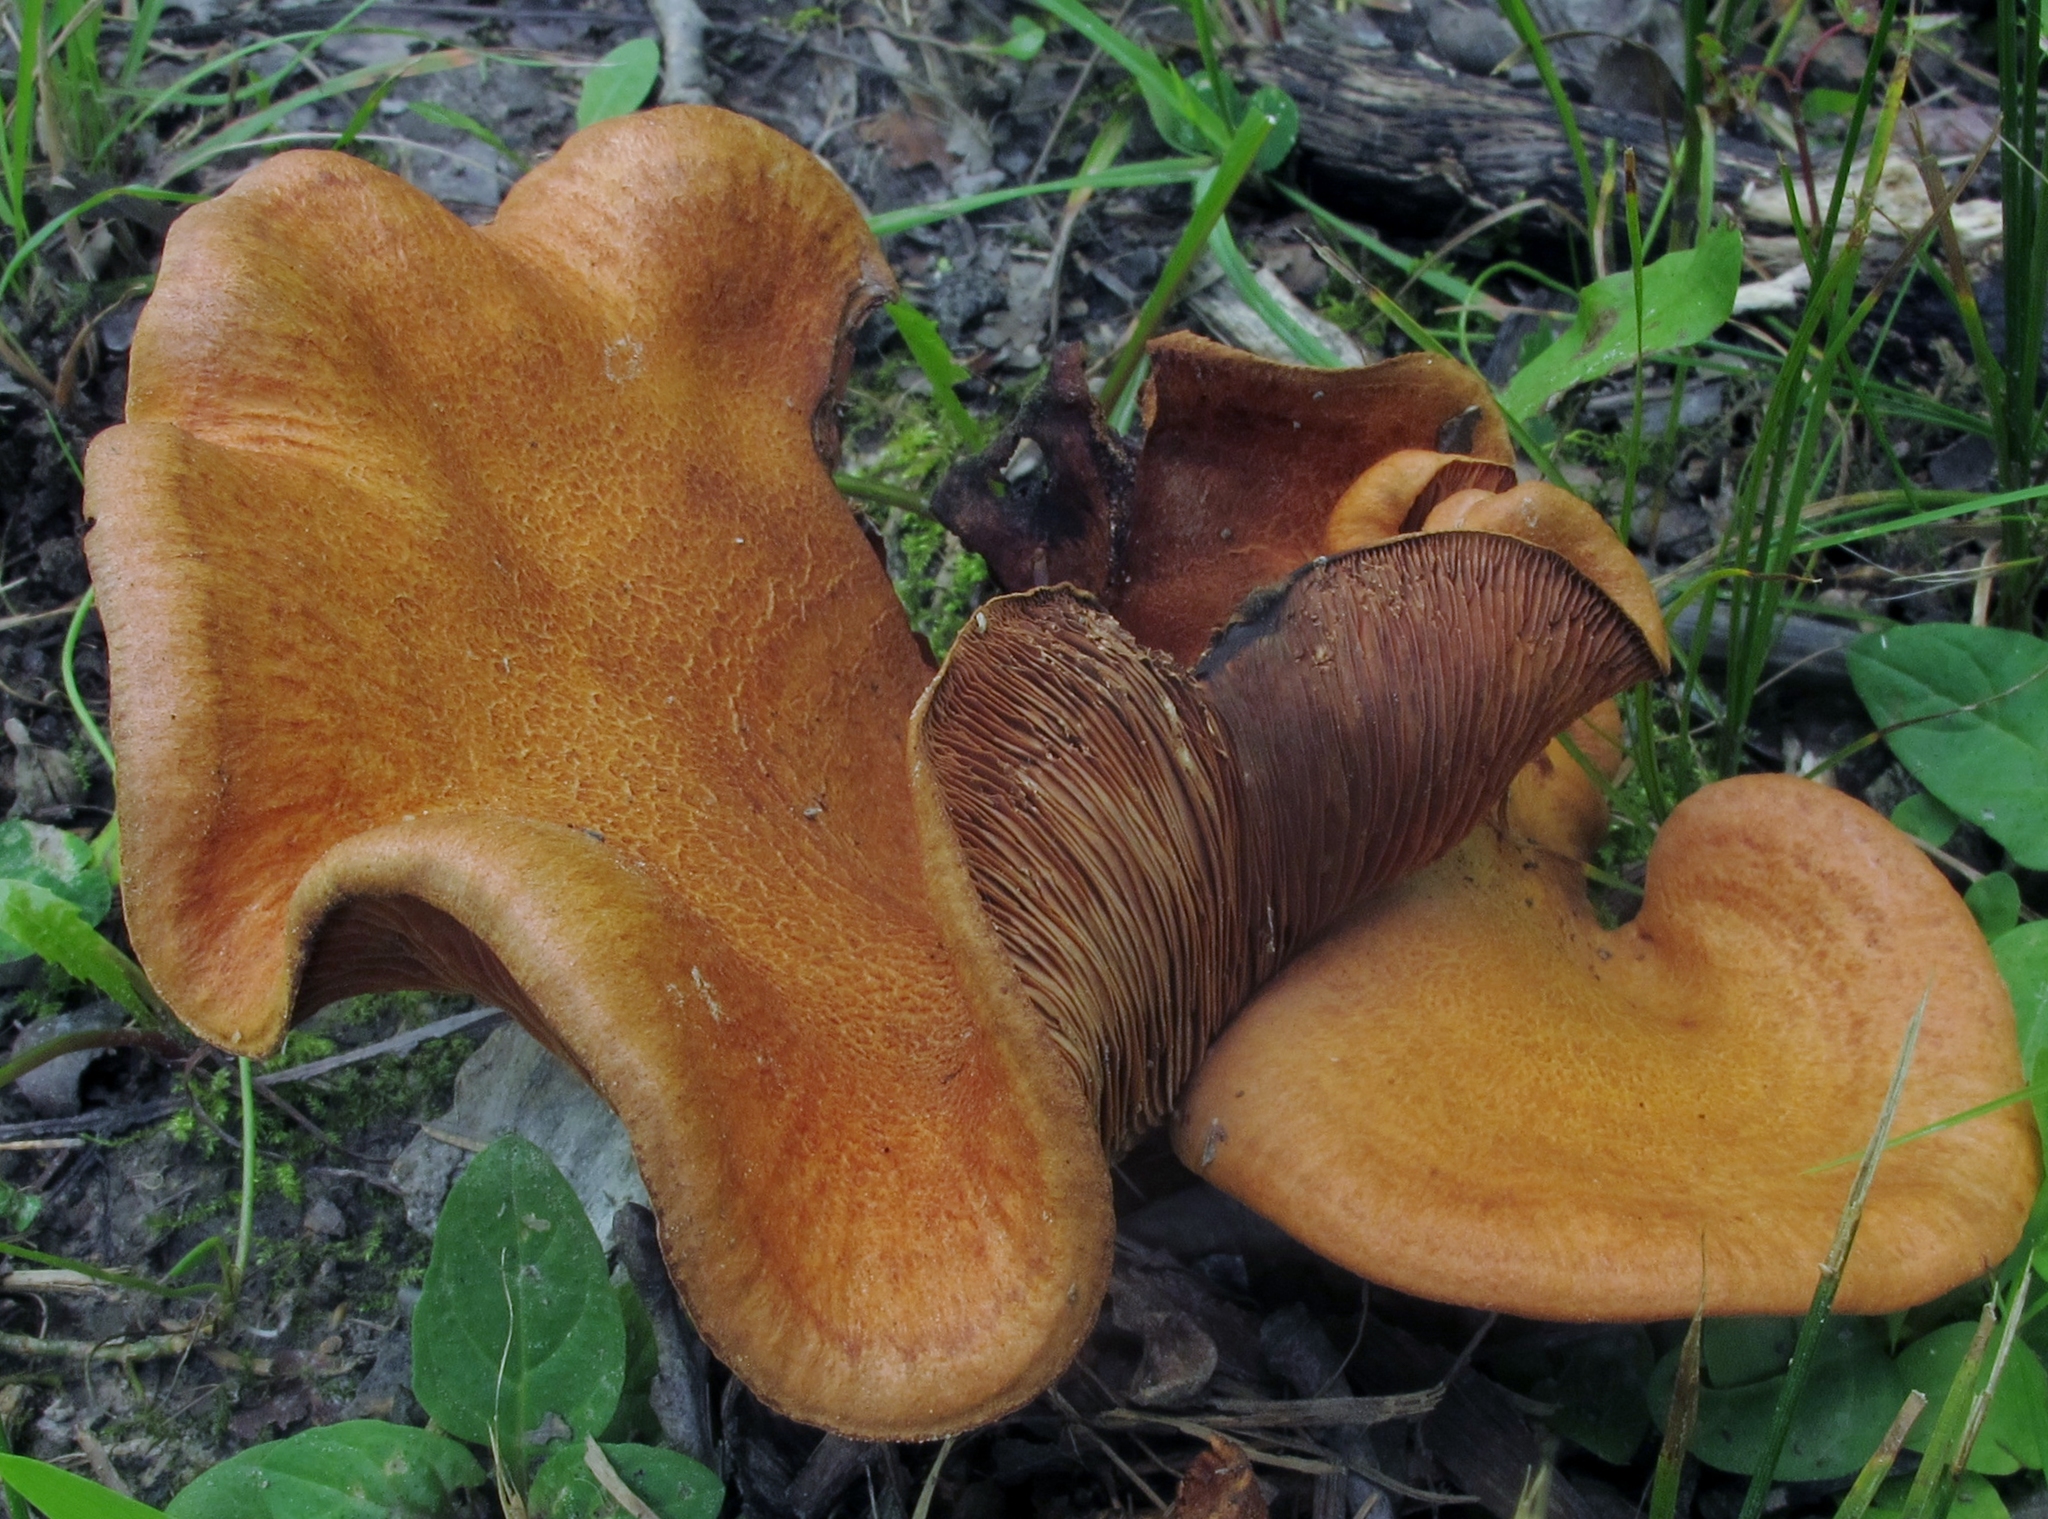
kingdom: Fungi
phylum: Basidiomycota
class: Agaricomycetes
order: Russulales
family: Russulaceae
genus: Lactarius
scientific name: Lactarius peckii
